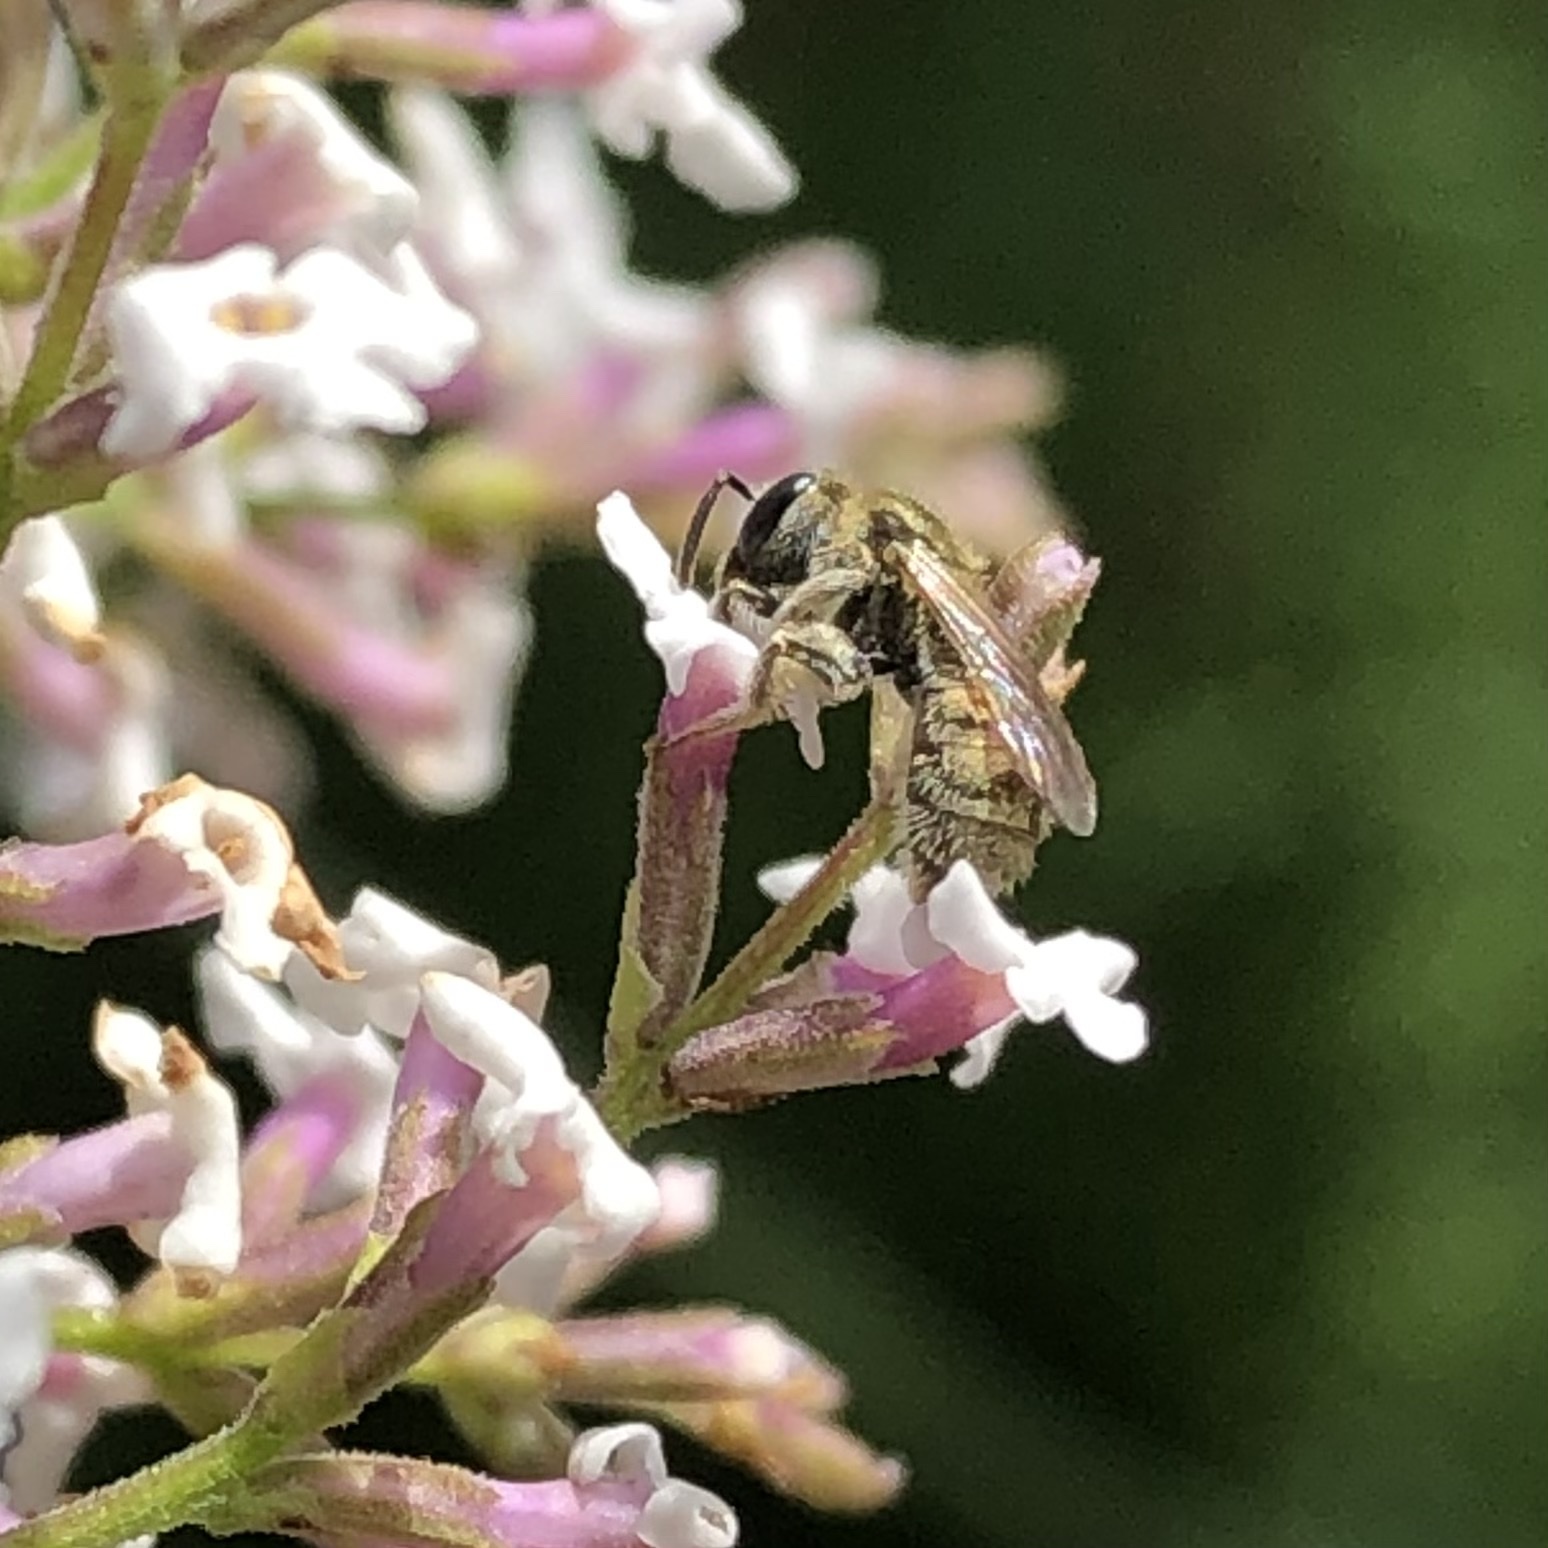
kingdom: Animalia
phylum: Arthropoda
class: Insecta
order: Hymenoptera
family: Halictidae
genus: Dialictus
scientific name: Dialictus
